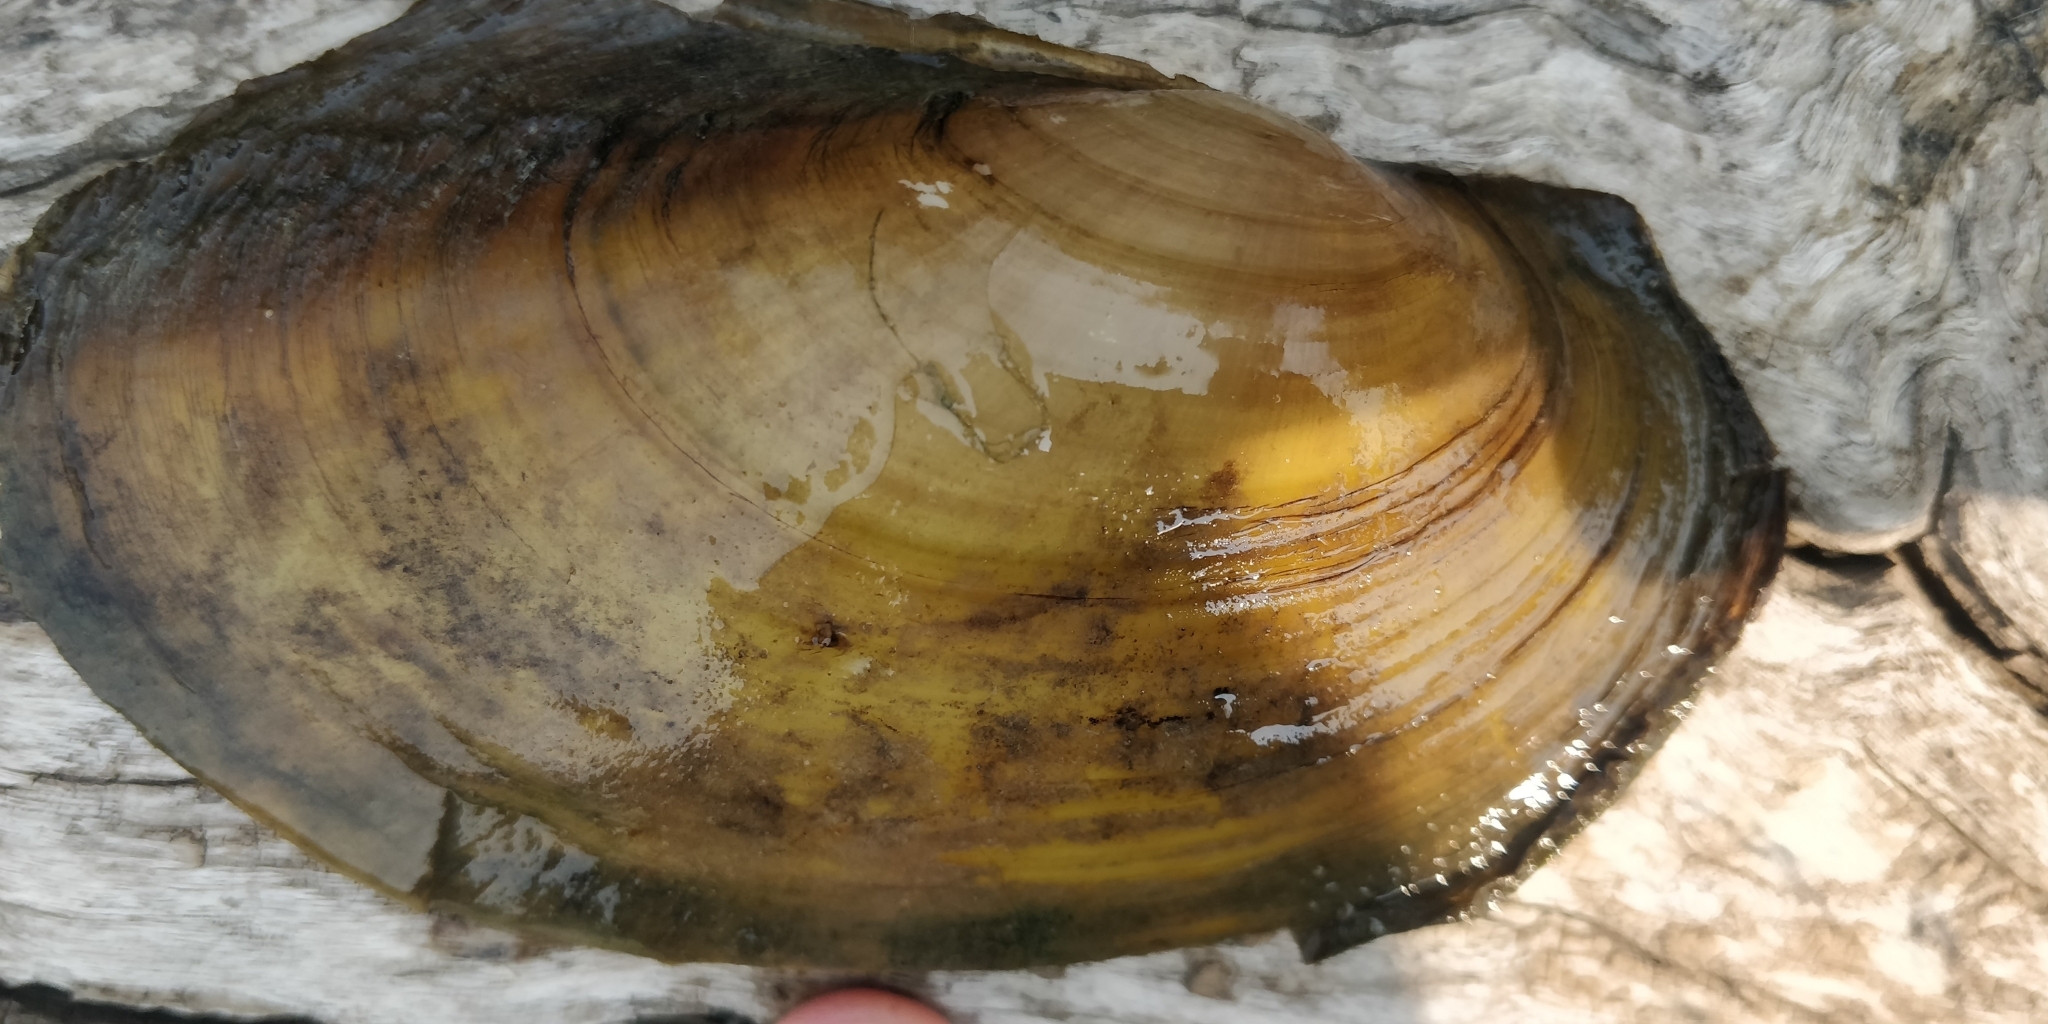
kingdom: Animalia
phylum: Mollusca
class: Bivalvia
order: Unionida
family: Unionidae
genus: Potamilus
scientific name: Potamilus fragilis
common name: Fragile papershell
